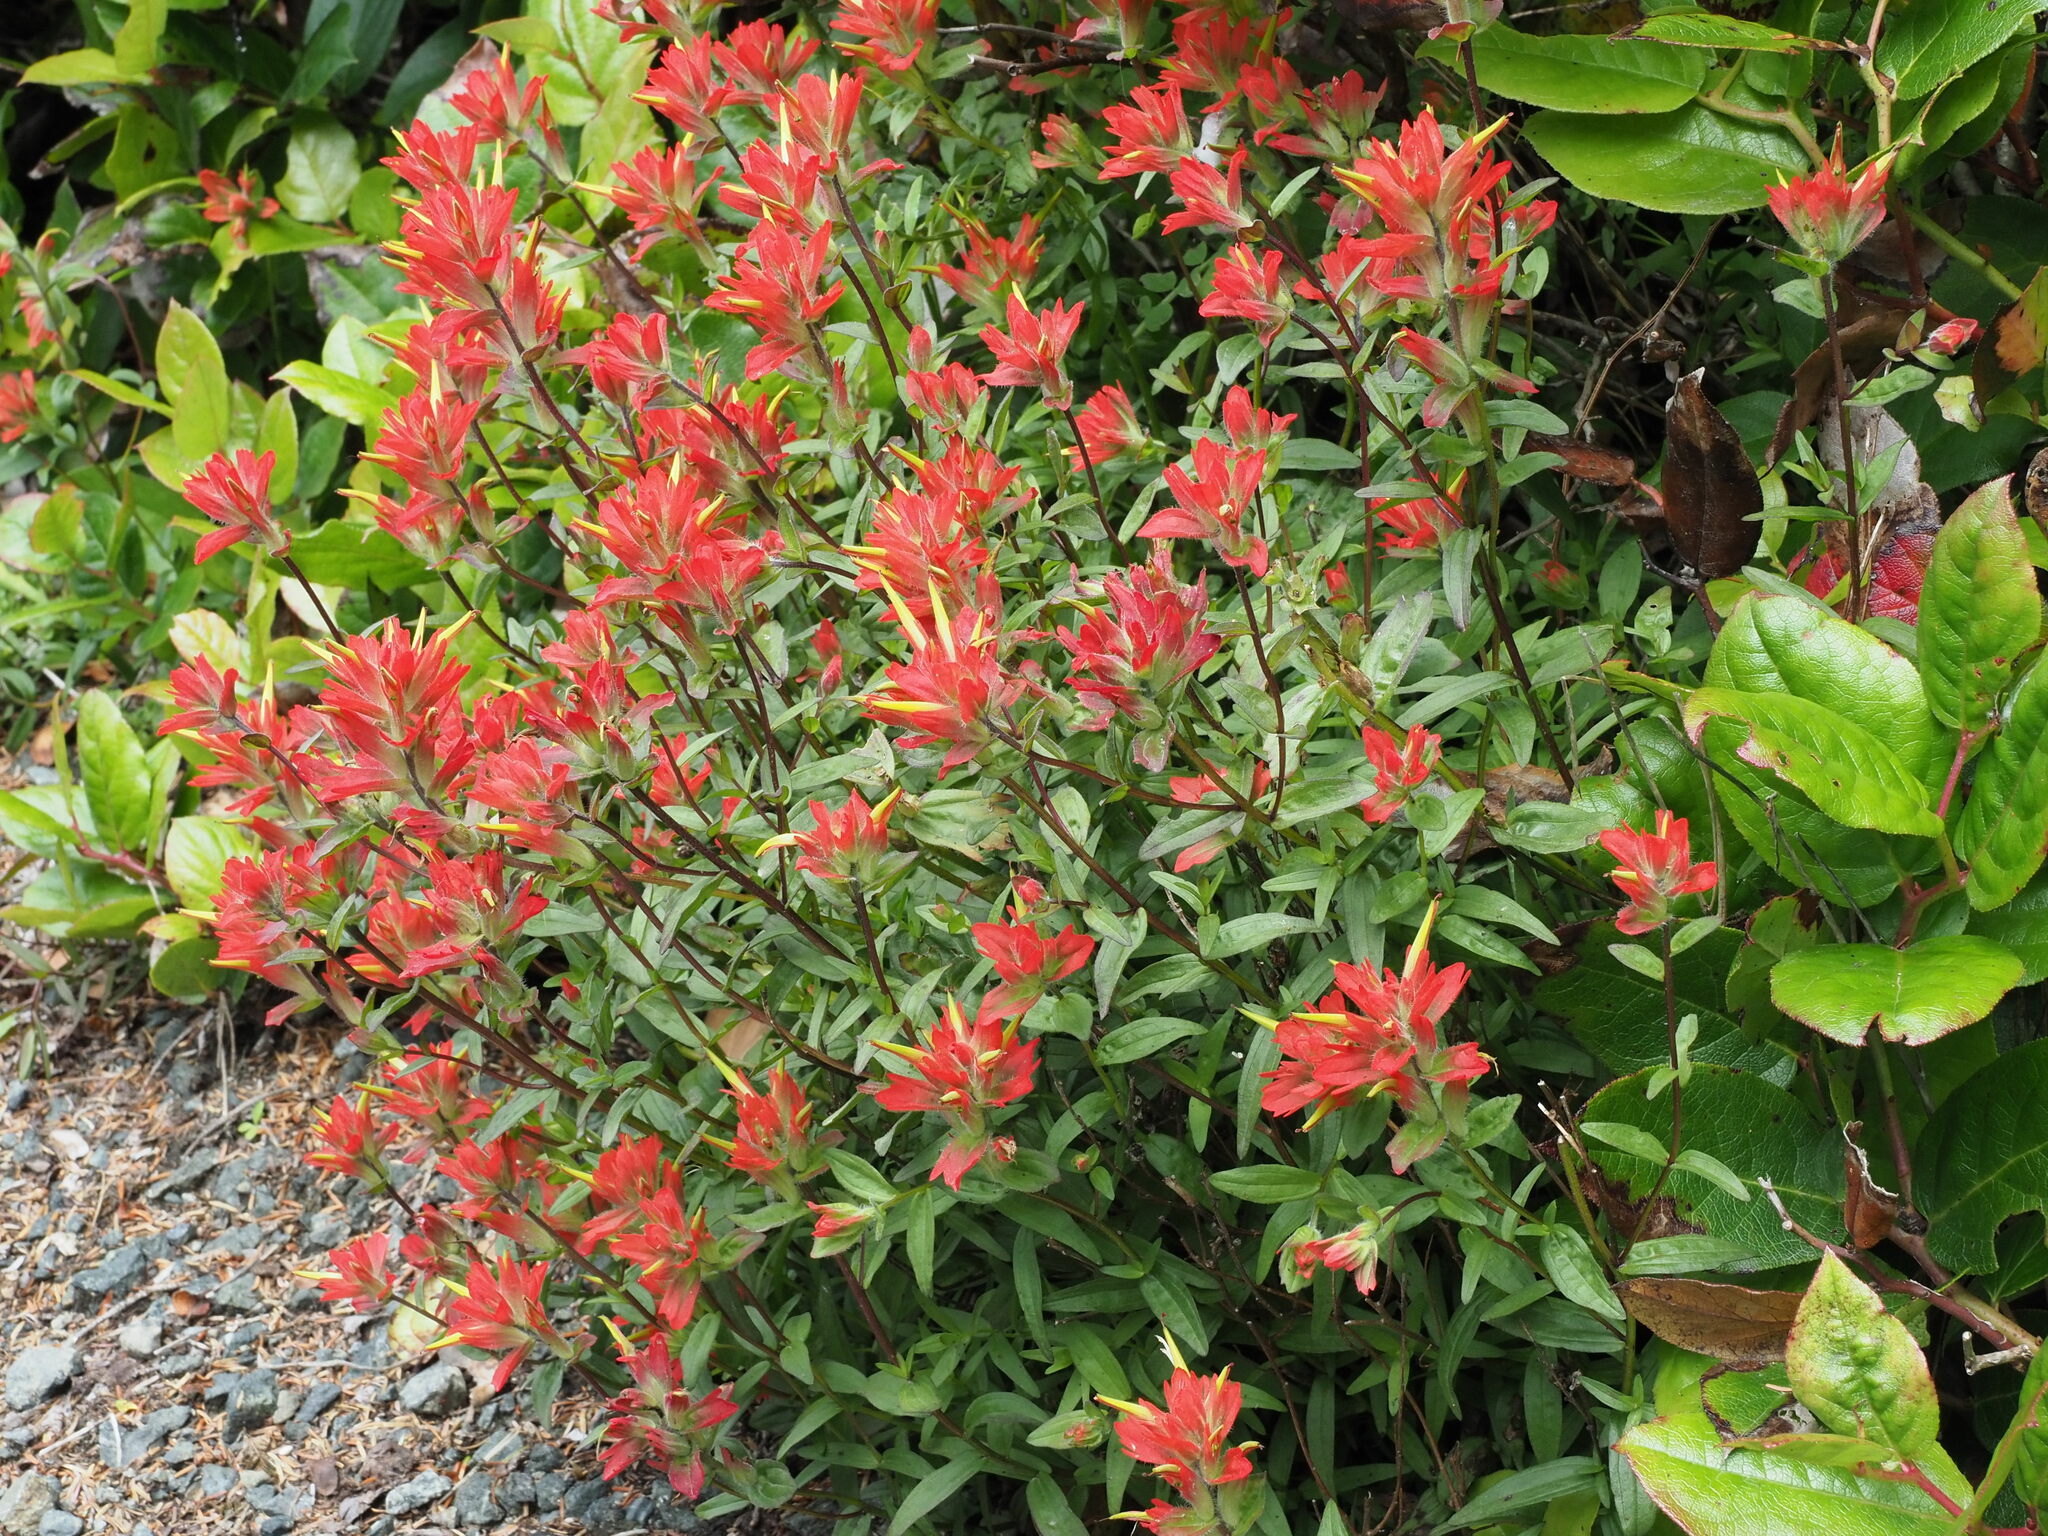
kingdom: Plantae
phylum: Tracheophyta
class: Magnoliopsida
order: Lamiales
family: Orobanchaceae
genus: Castilleja
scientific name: Castilleja miniata
